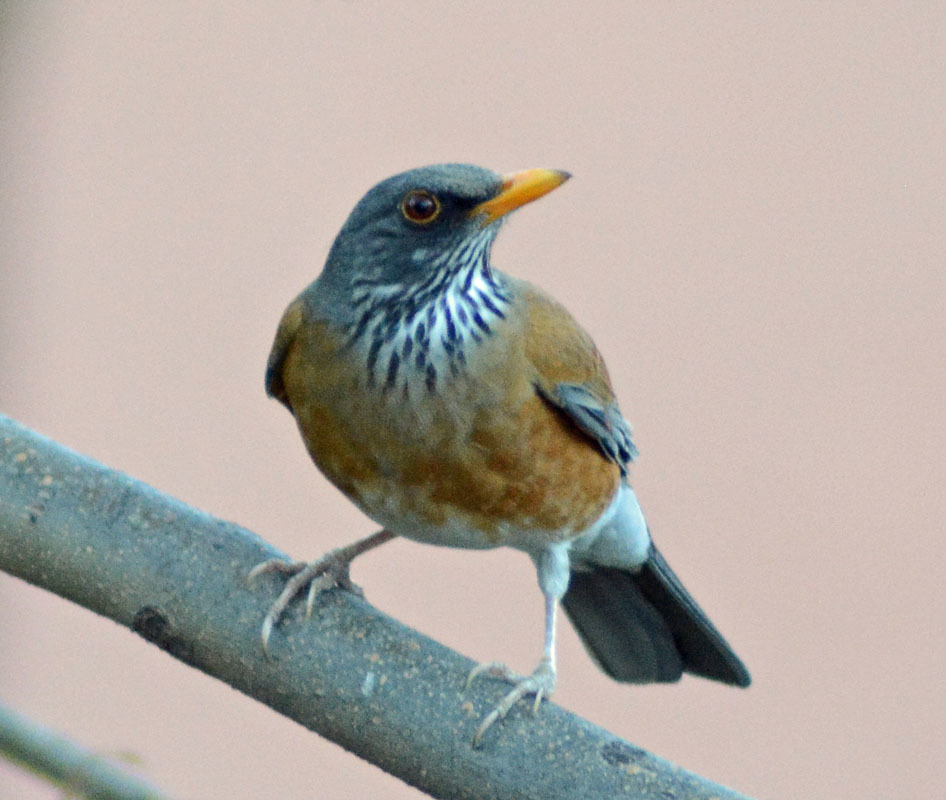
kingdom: Animalia
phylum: Chordata
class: Aves
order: Passeriformes
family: Turdidae
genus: Turdus
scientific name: Turdus rufopalliatus
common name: Rufous-backed robin
